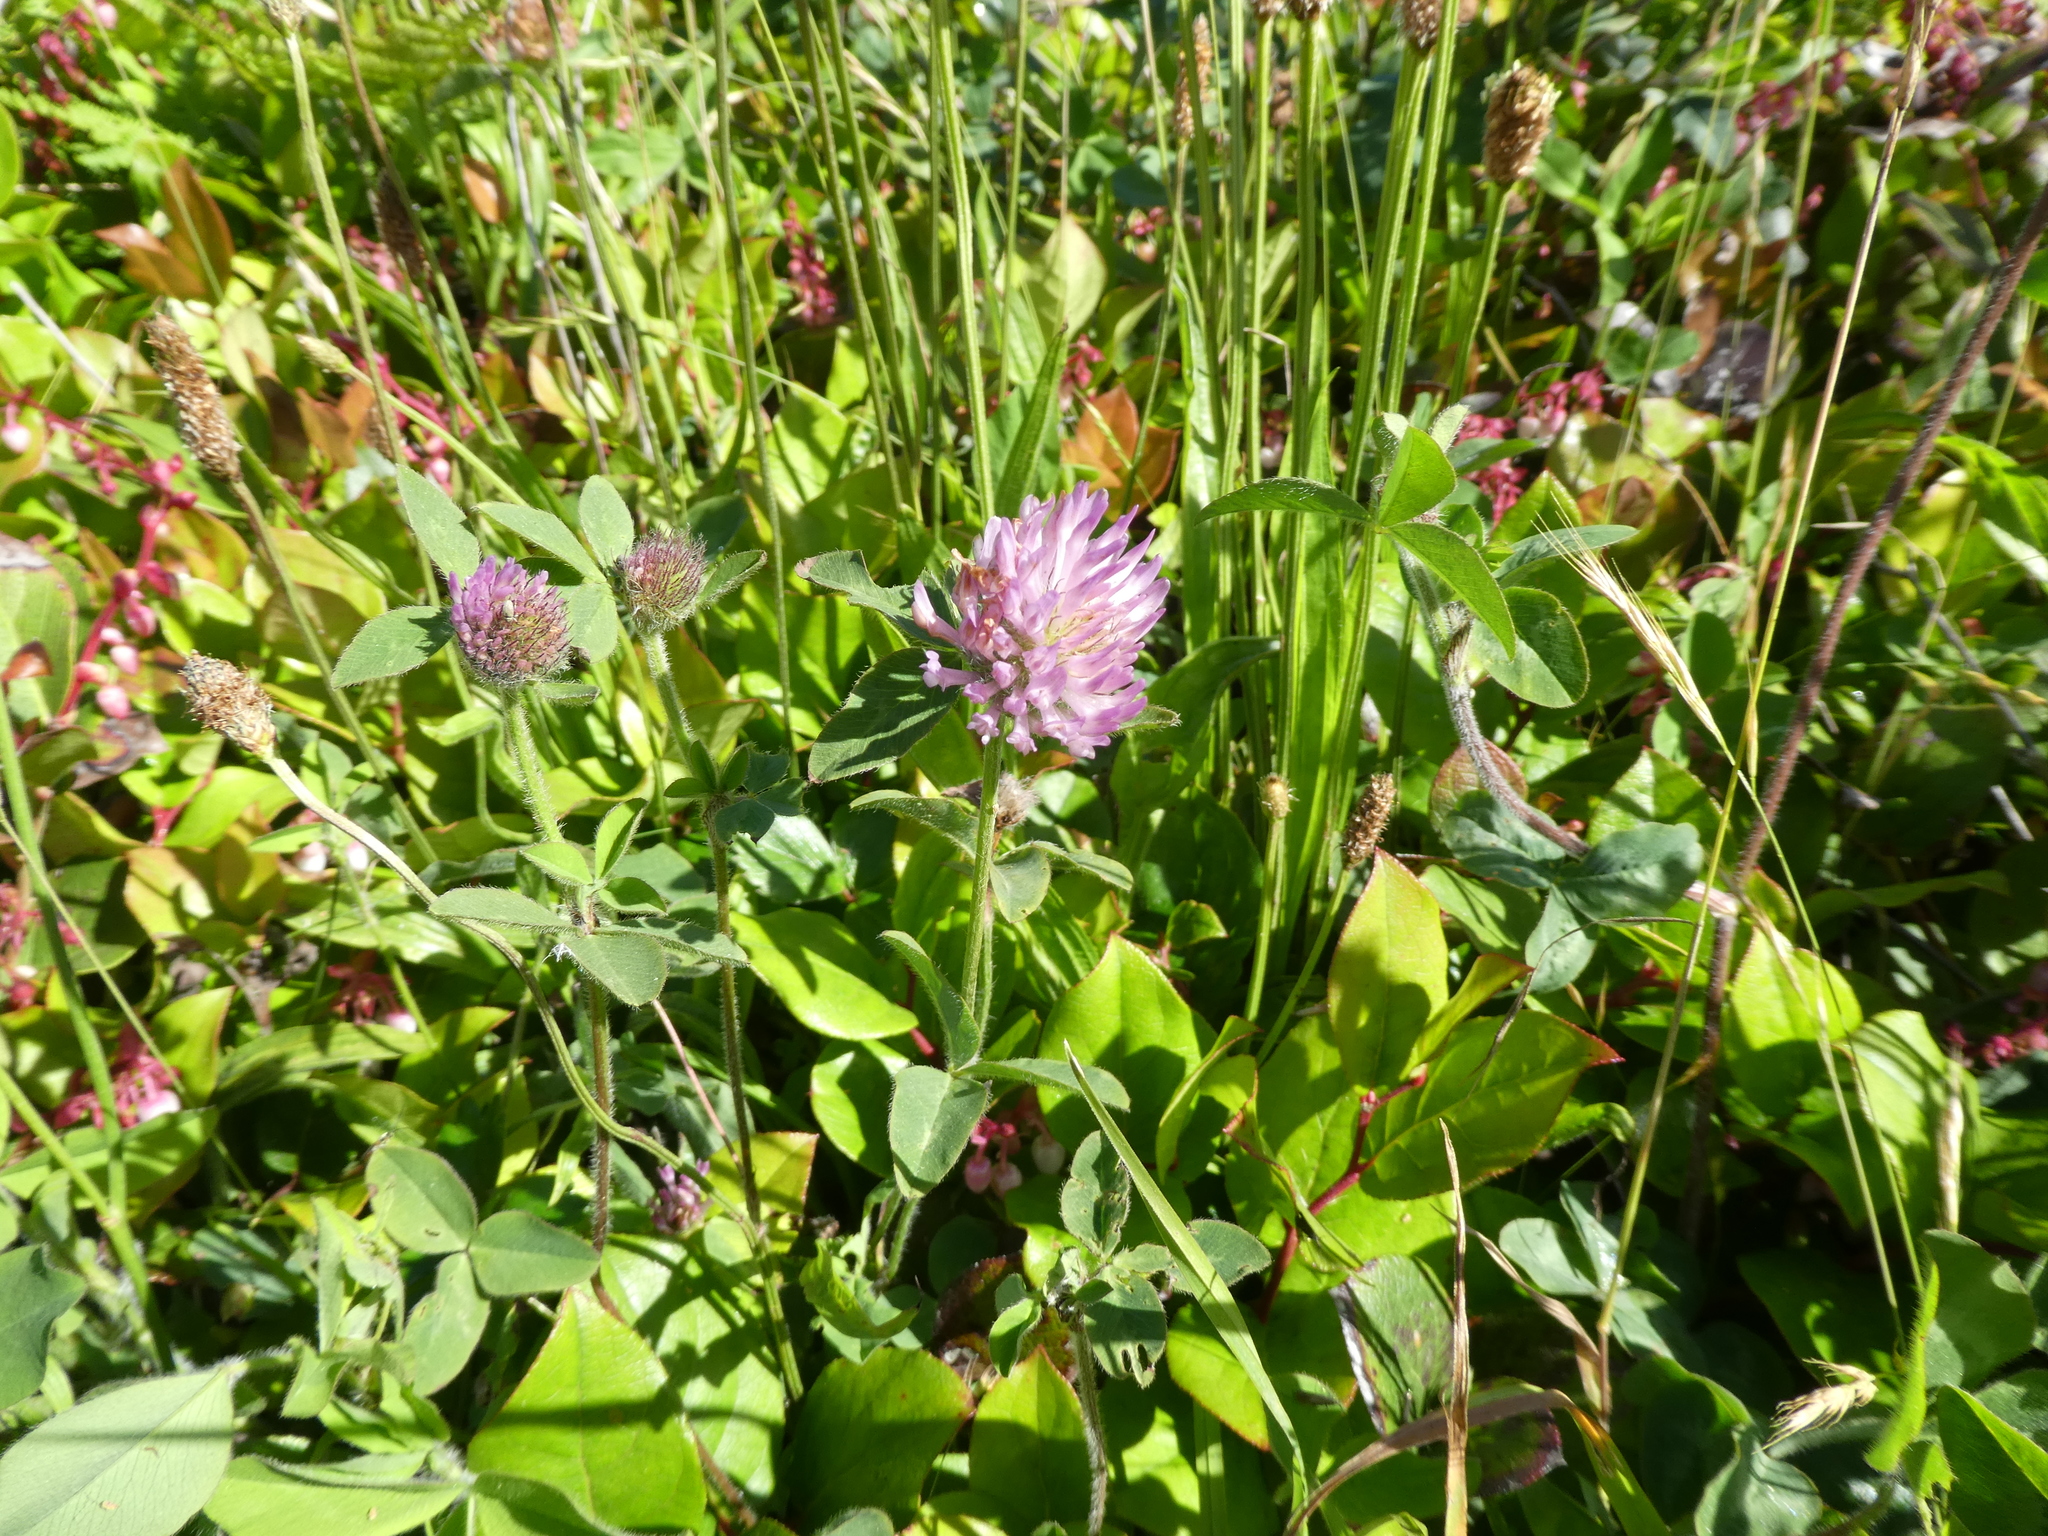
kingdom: Plantae
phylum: Tracheophyta
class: Magnoliopsida
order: Fabales
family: Fabaceae
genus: Trifolium
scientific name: Trifolium pratense
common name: Red clover
